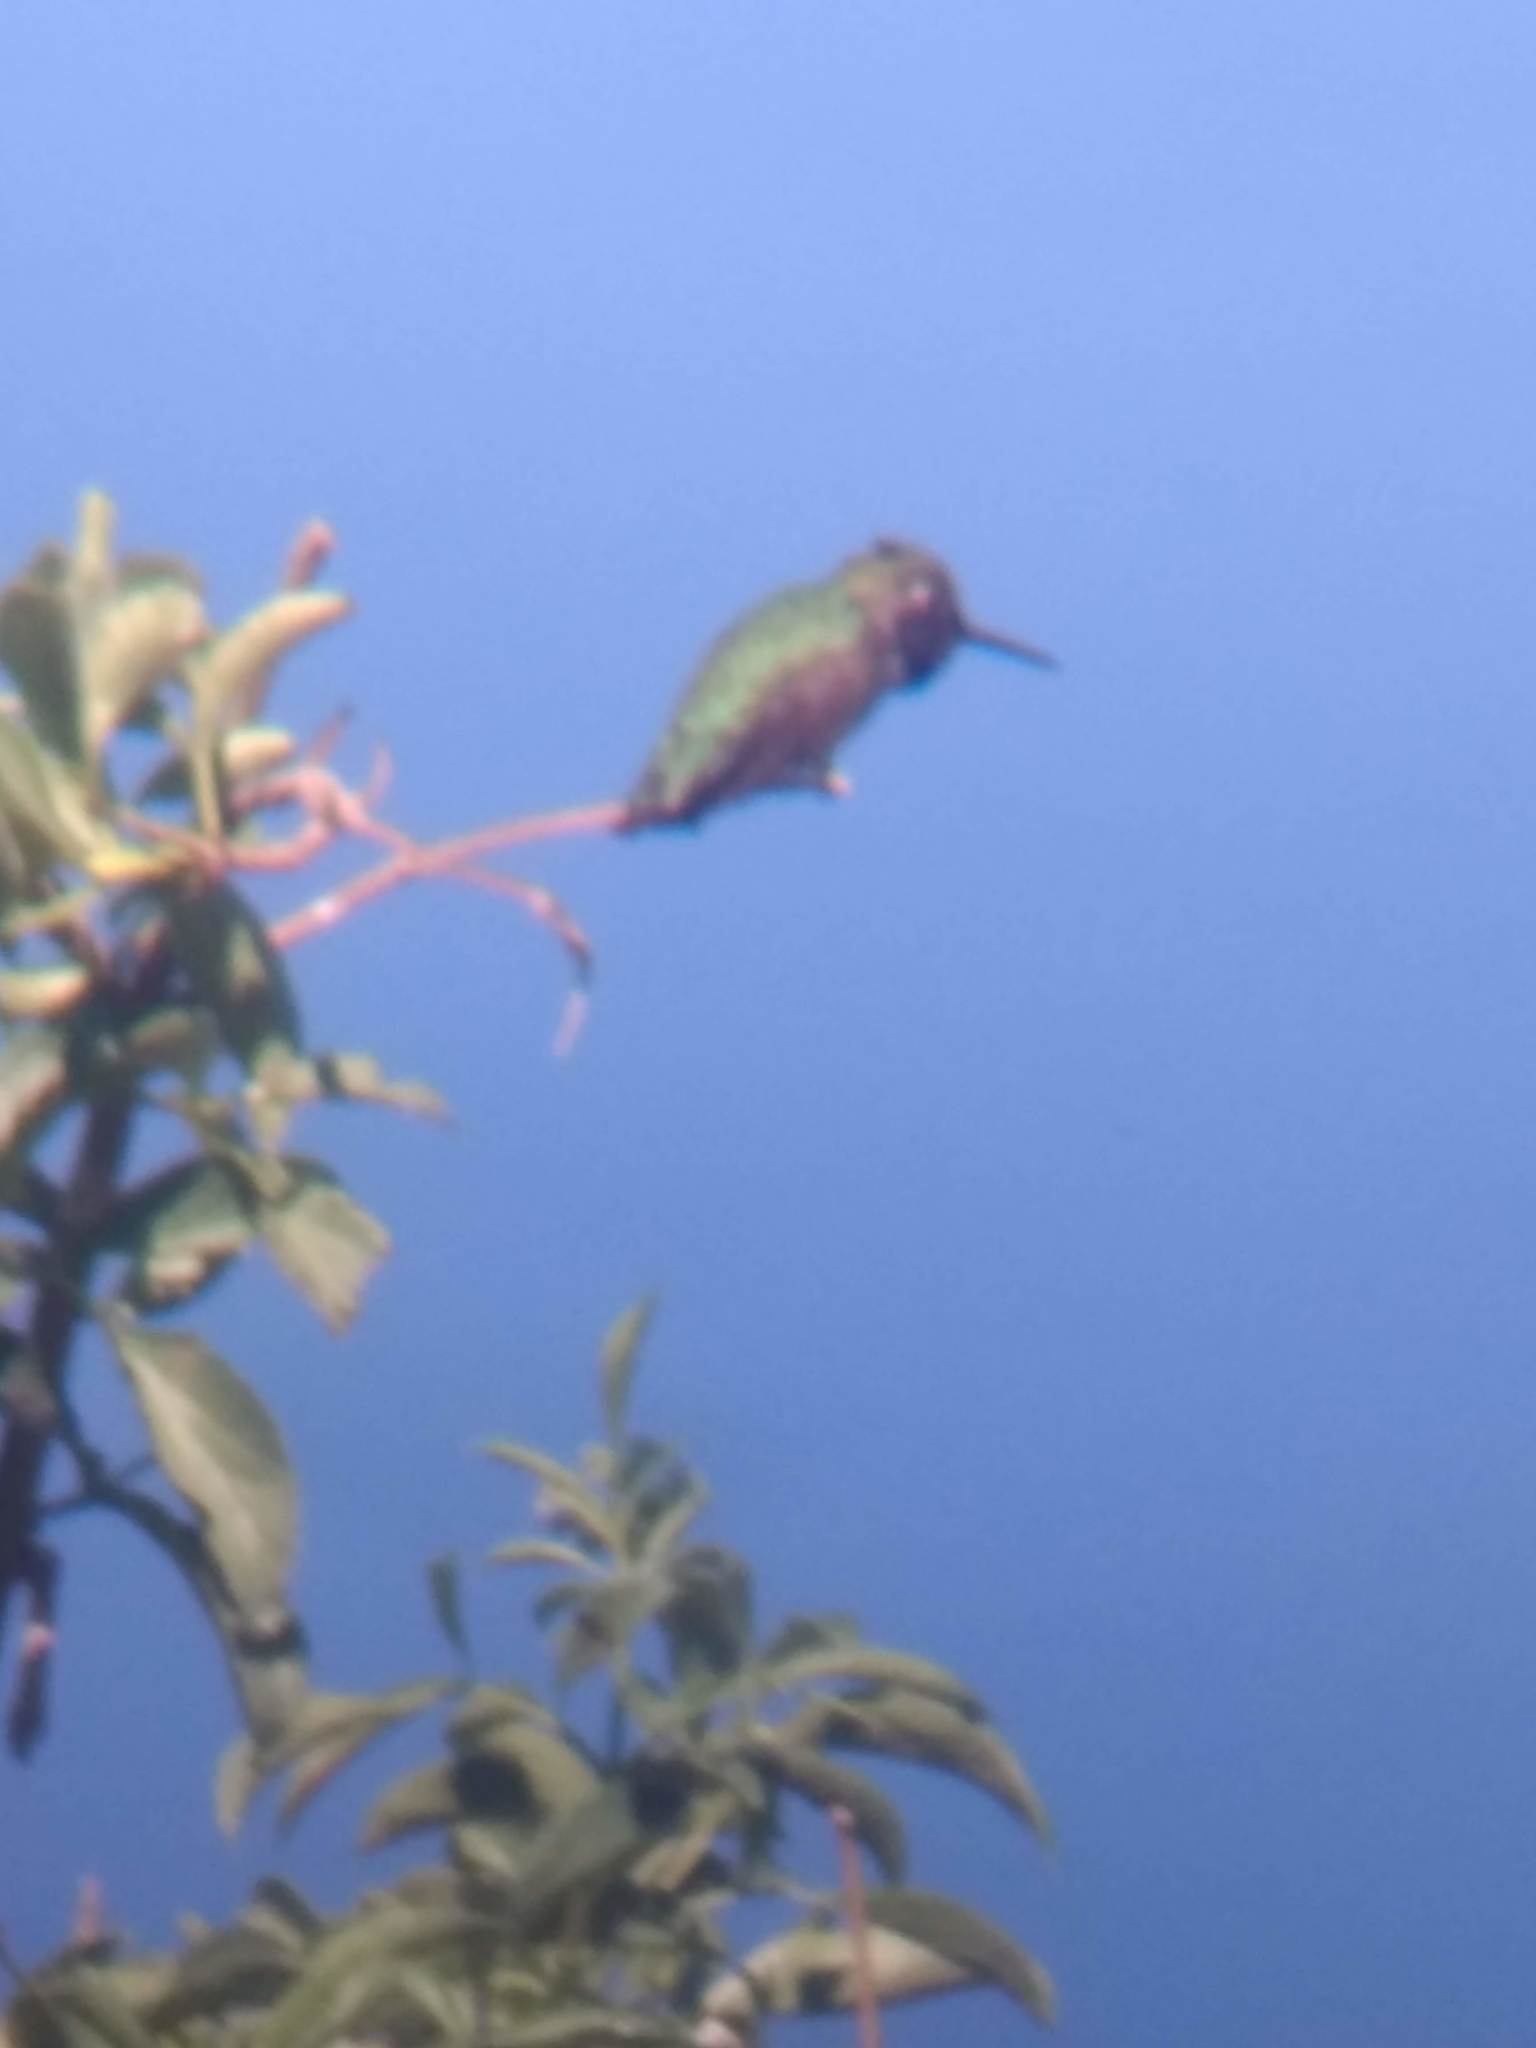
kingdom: Animalia
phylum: Chordata
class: Aves
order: Apodiformes
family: Trochilidae
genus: Calypte
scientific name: Calypte anna
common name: Anna's hummingbird
